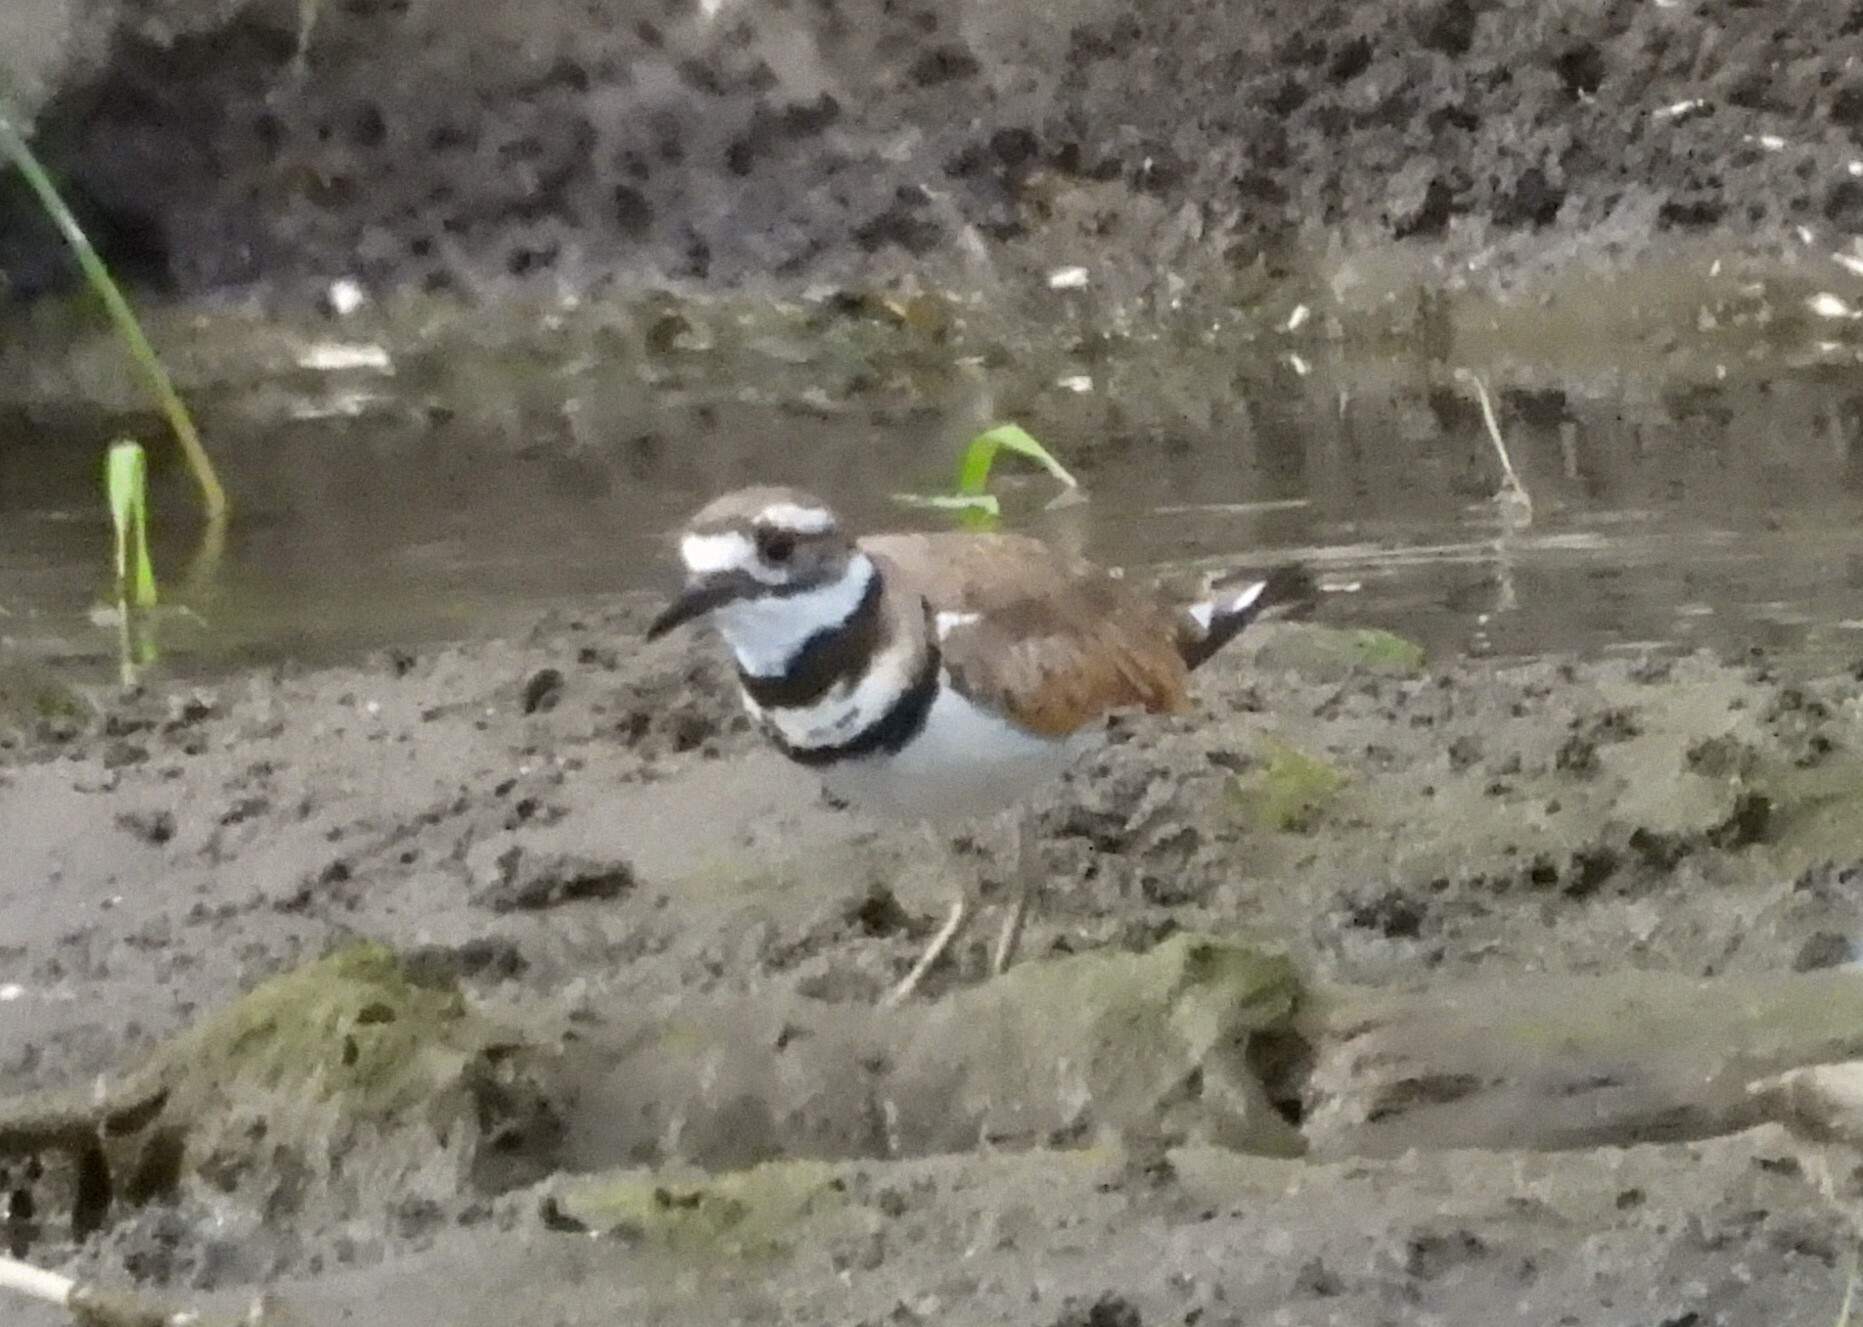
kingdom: Animalia
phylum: Chordata
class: Aves
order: Charadriiformes
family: Charadriidae
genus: Charadrius
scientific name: Charadrius vociferus
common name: Killdeer
